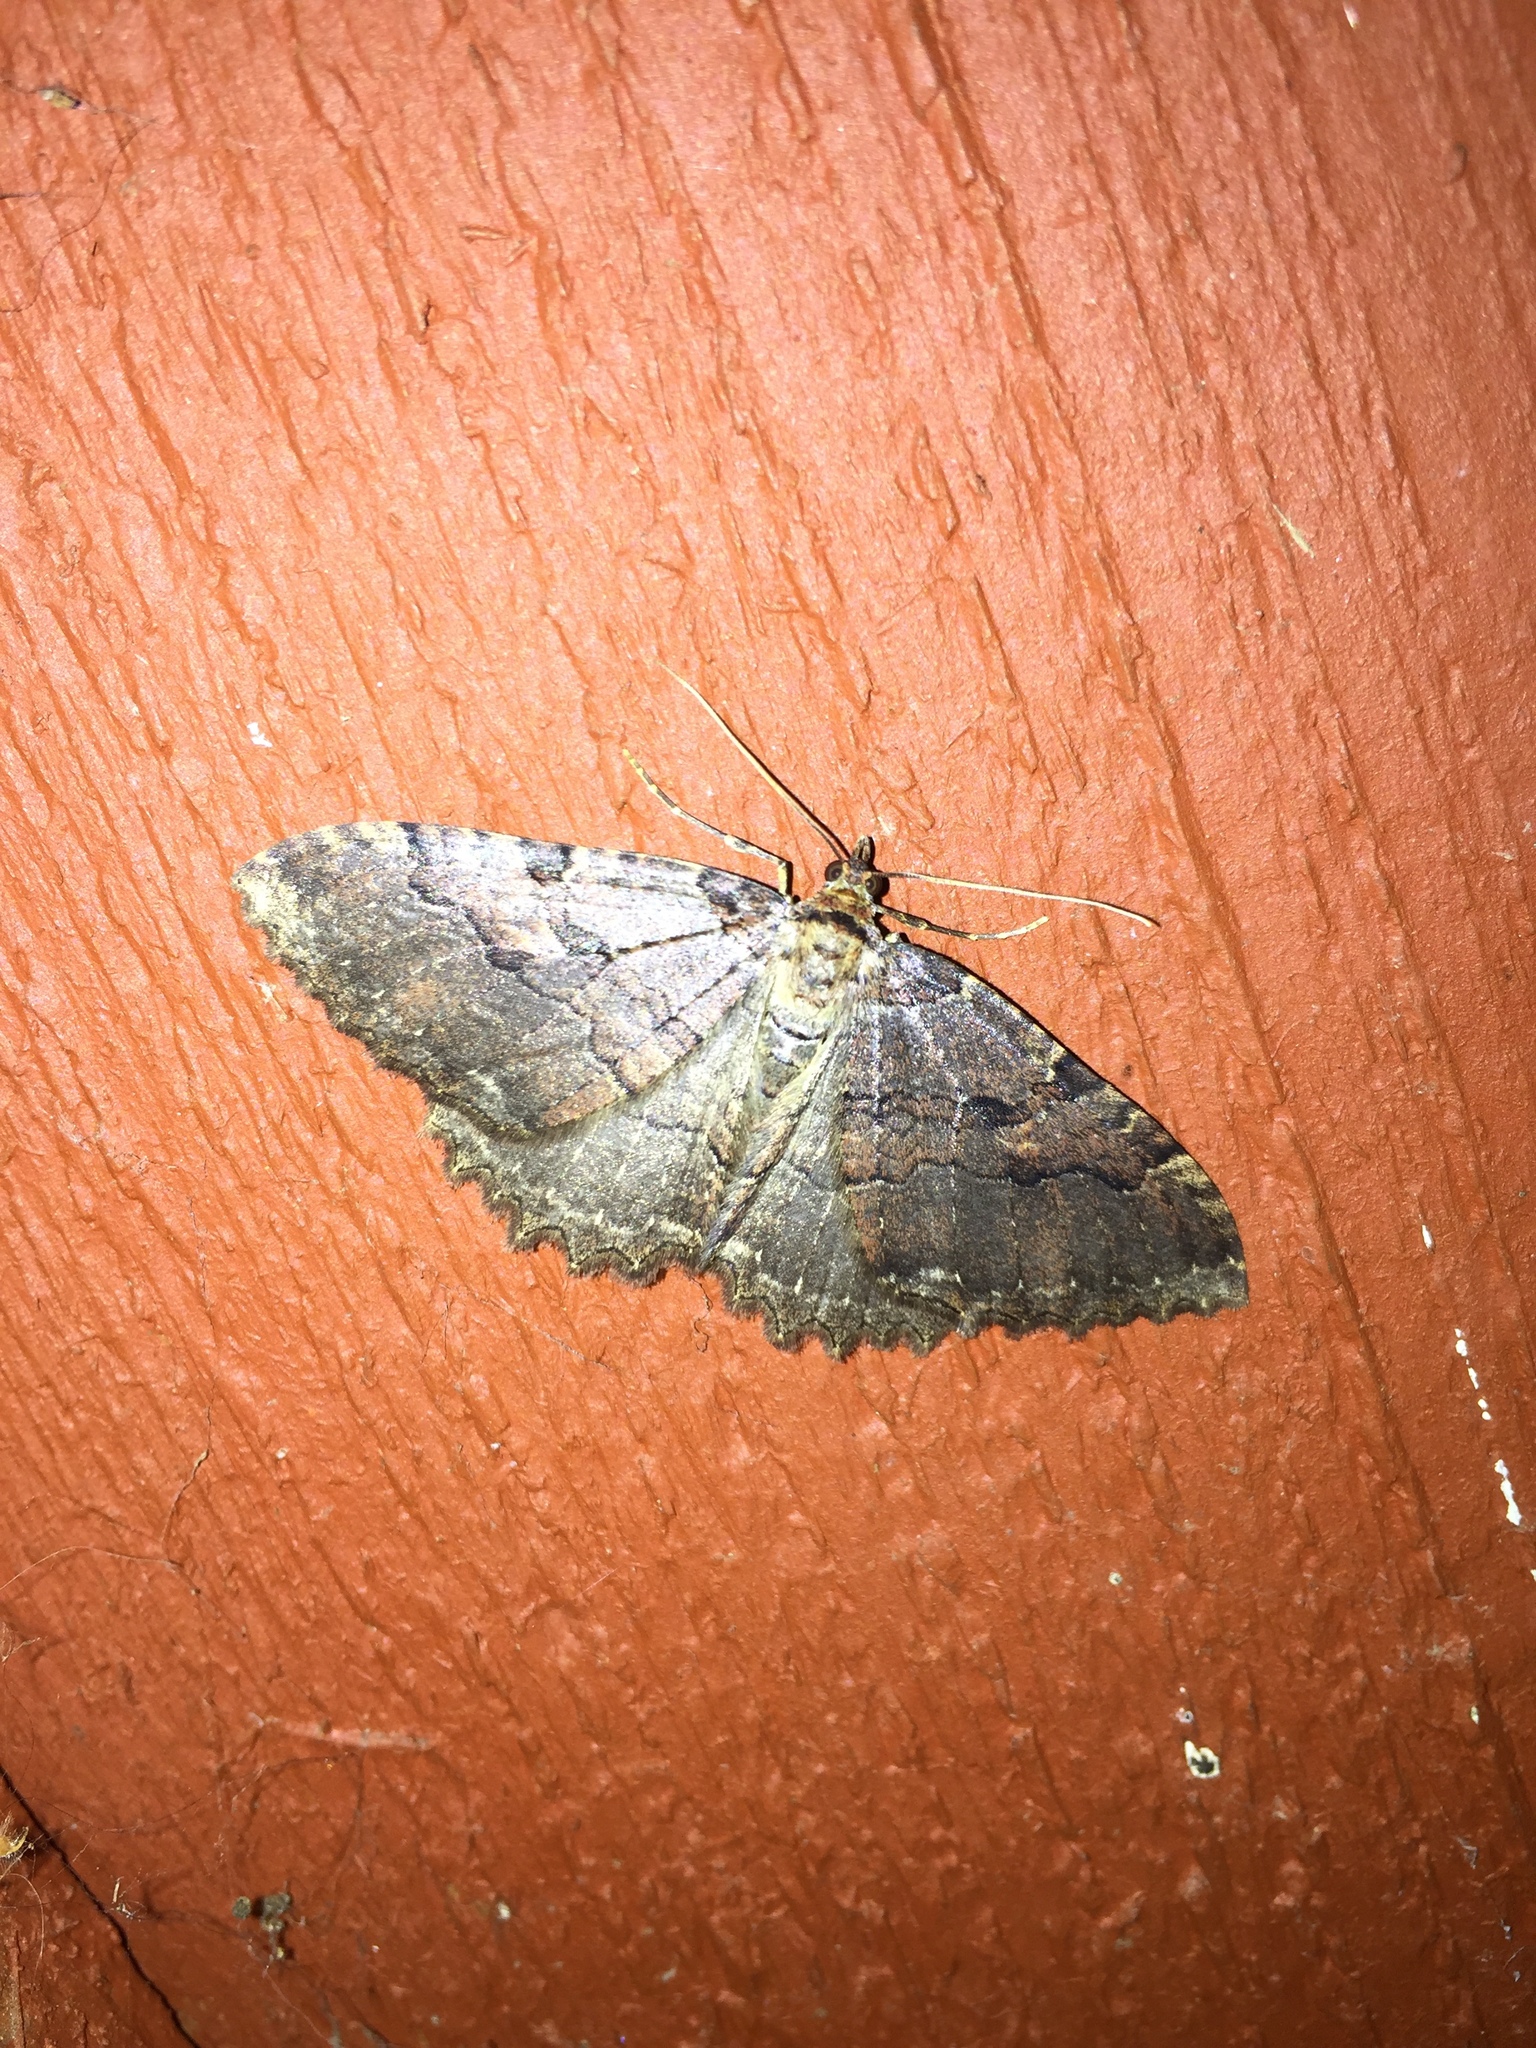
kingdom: Animalia
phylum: Arthropoda
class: Insecta
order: Lepidoptera
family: Geometridae
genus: Triphosa
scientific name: Triphosa haesitata
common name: Tissue moth
